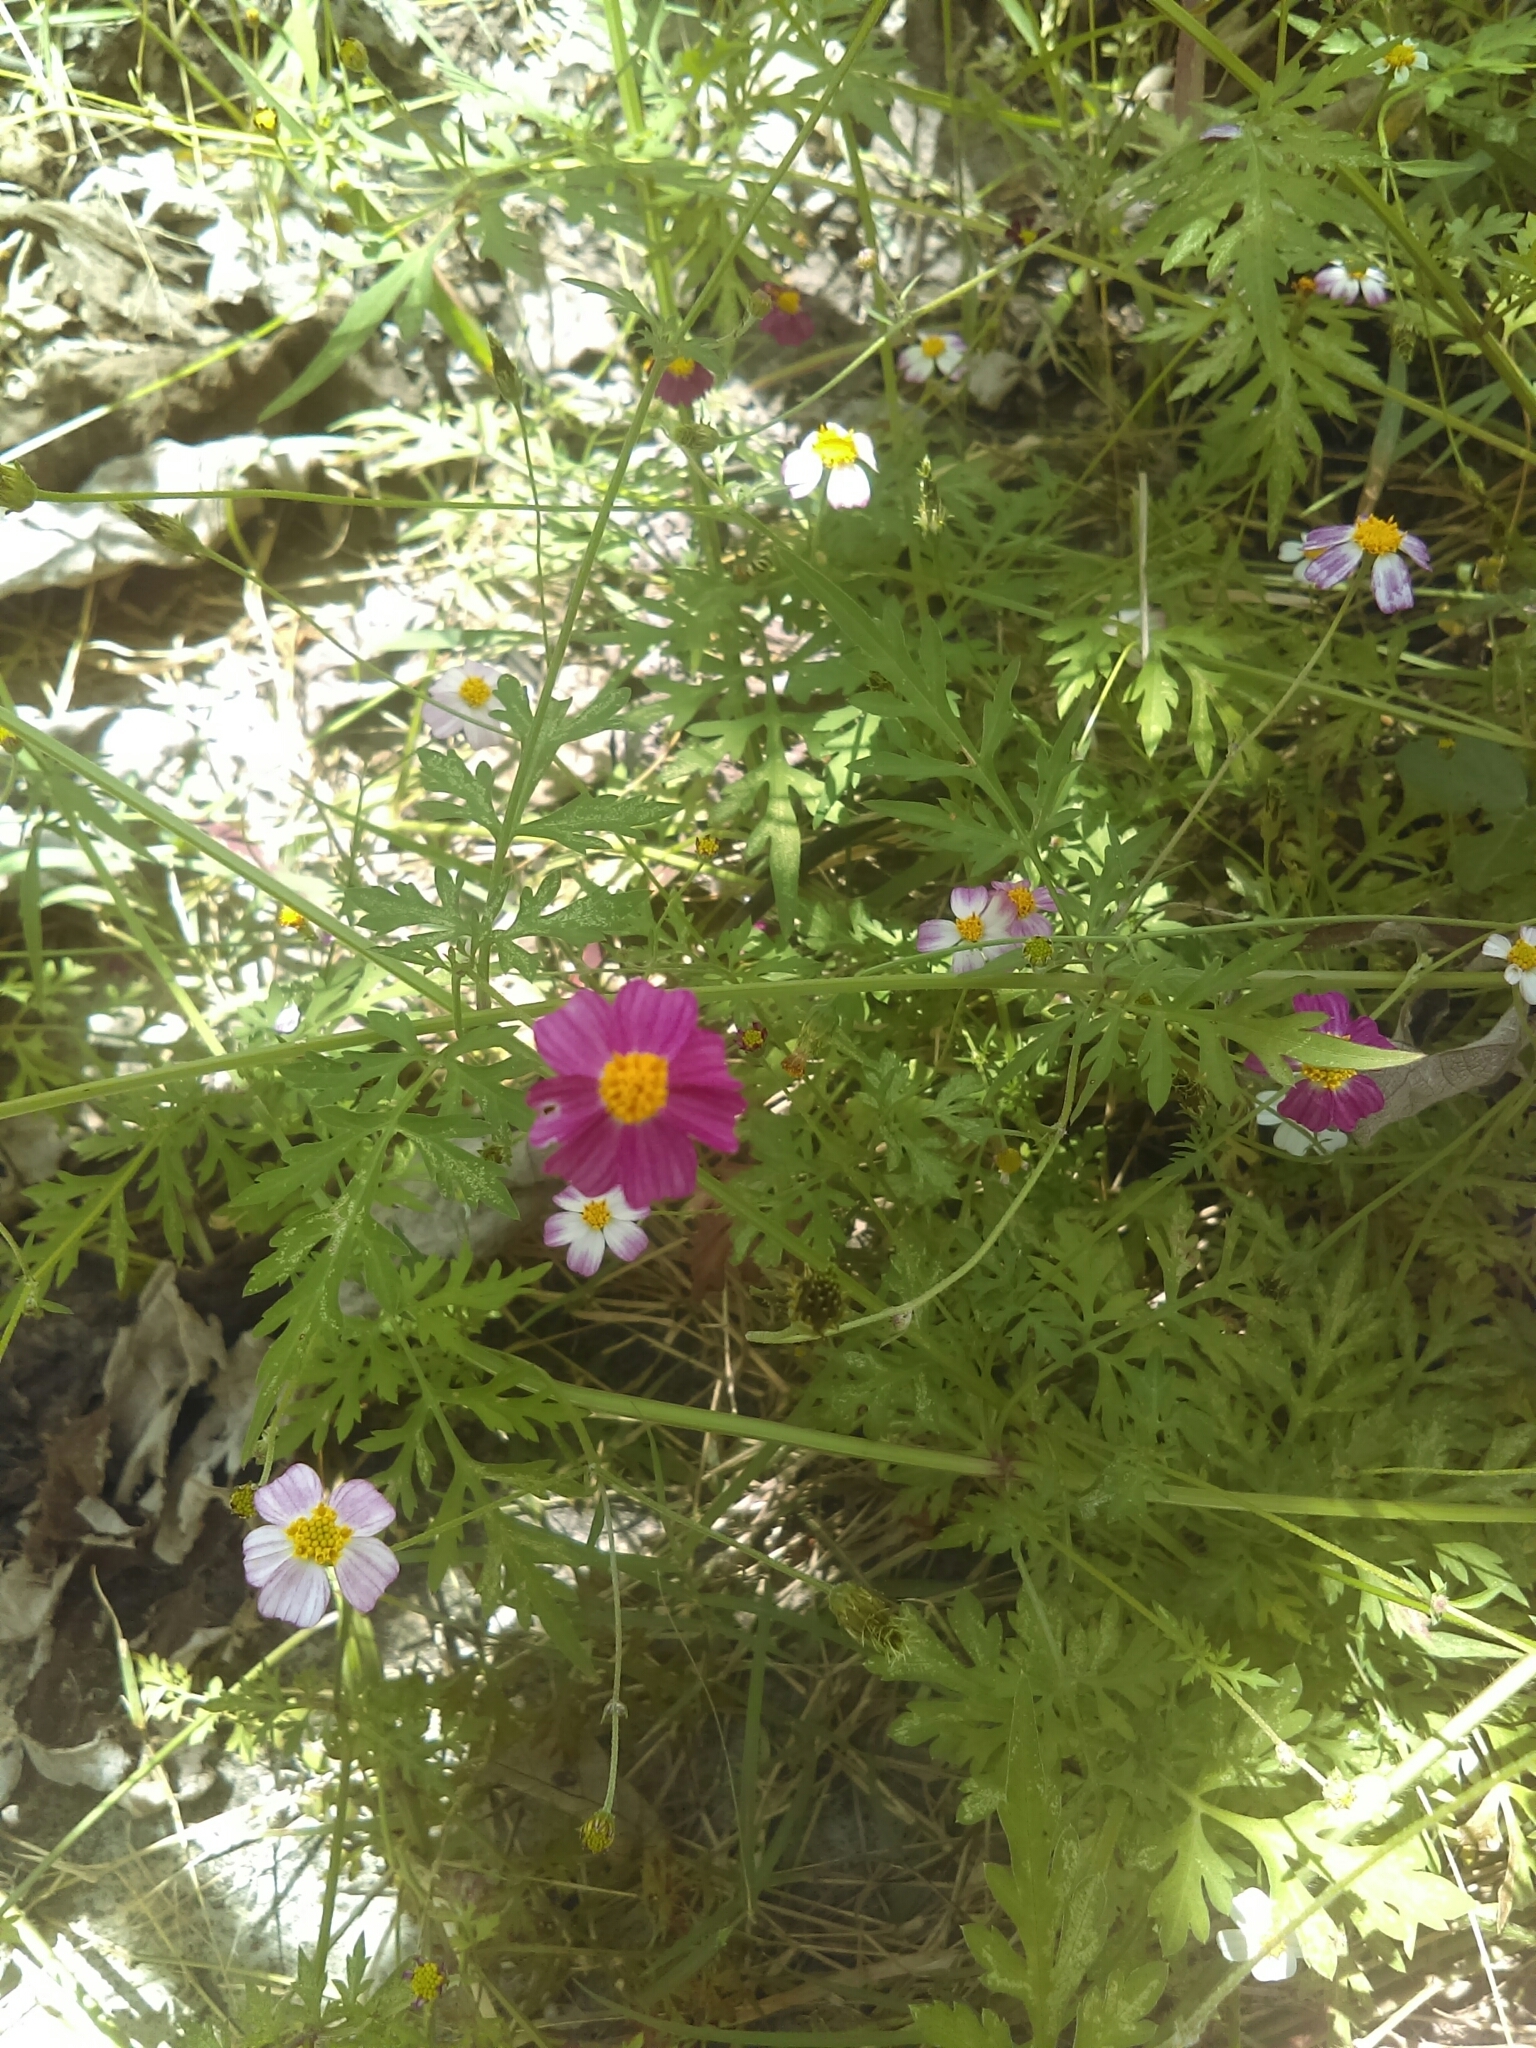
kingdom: Plantae
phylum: Tracheophyta
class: Magnoliopsida
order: Asterales
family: Asteraceae
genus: Bidens
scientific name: Bidens aequisquama
